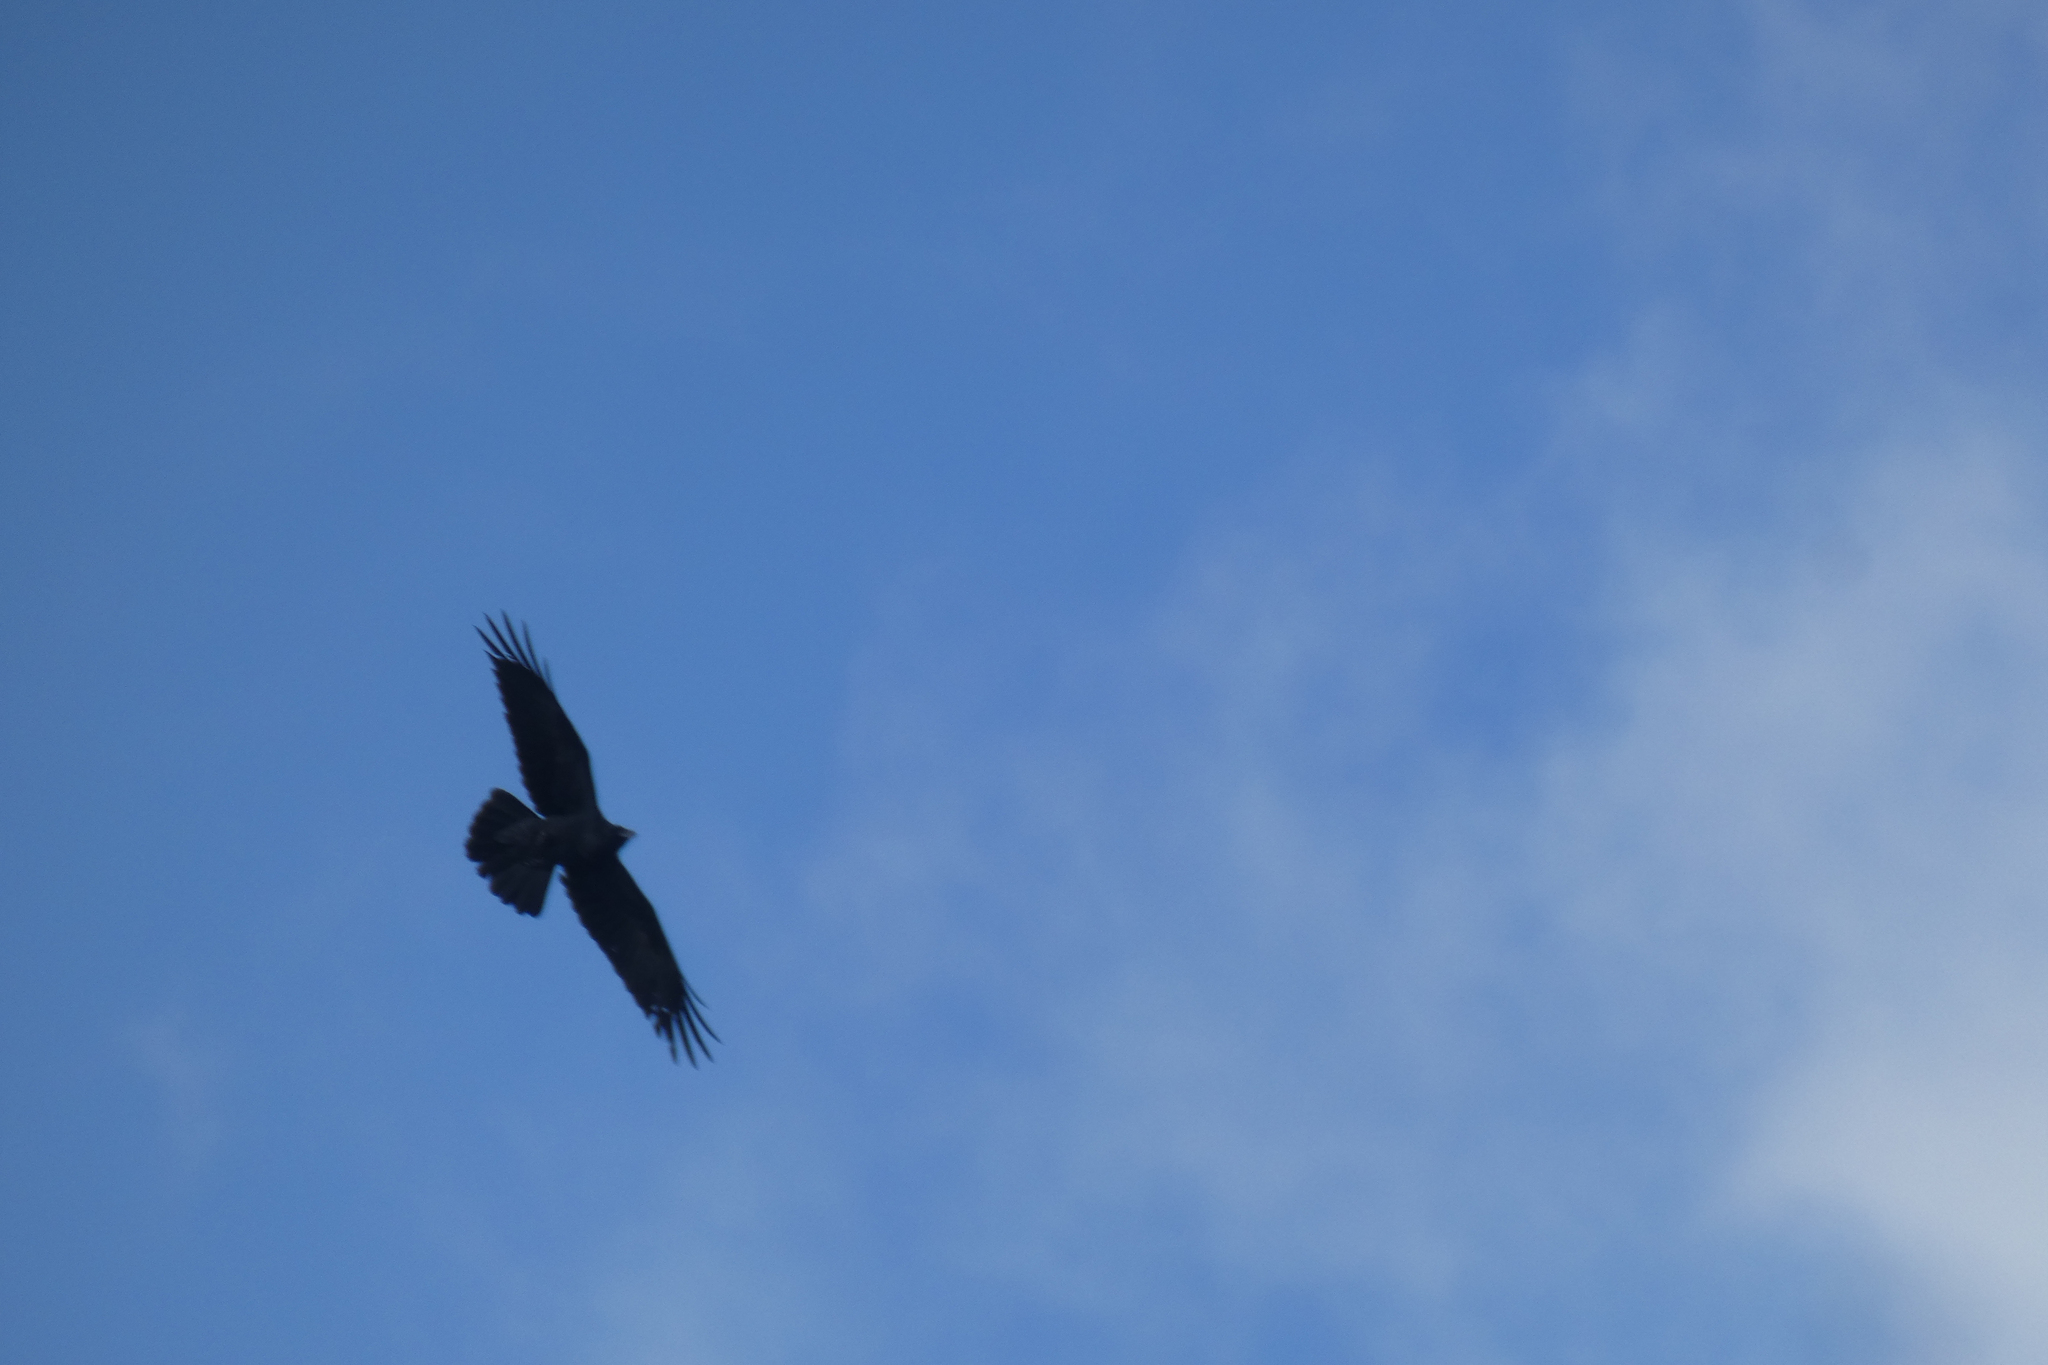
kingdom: Animalia
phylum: Chordata
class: Aves
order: Passeriformes
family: Corvidae
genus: Corvus
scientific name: Corvus corax
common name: Common raven
